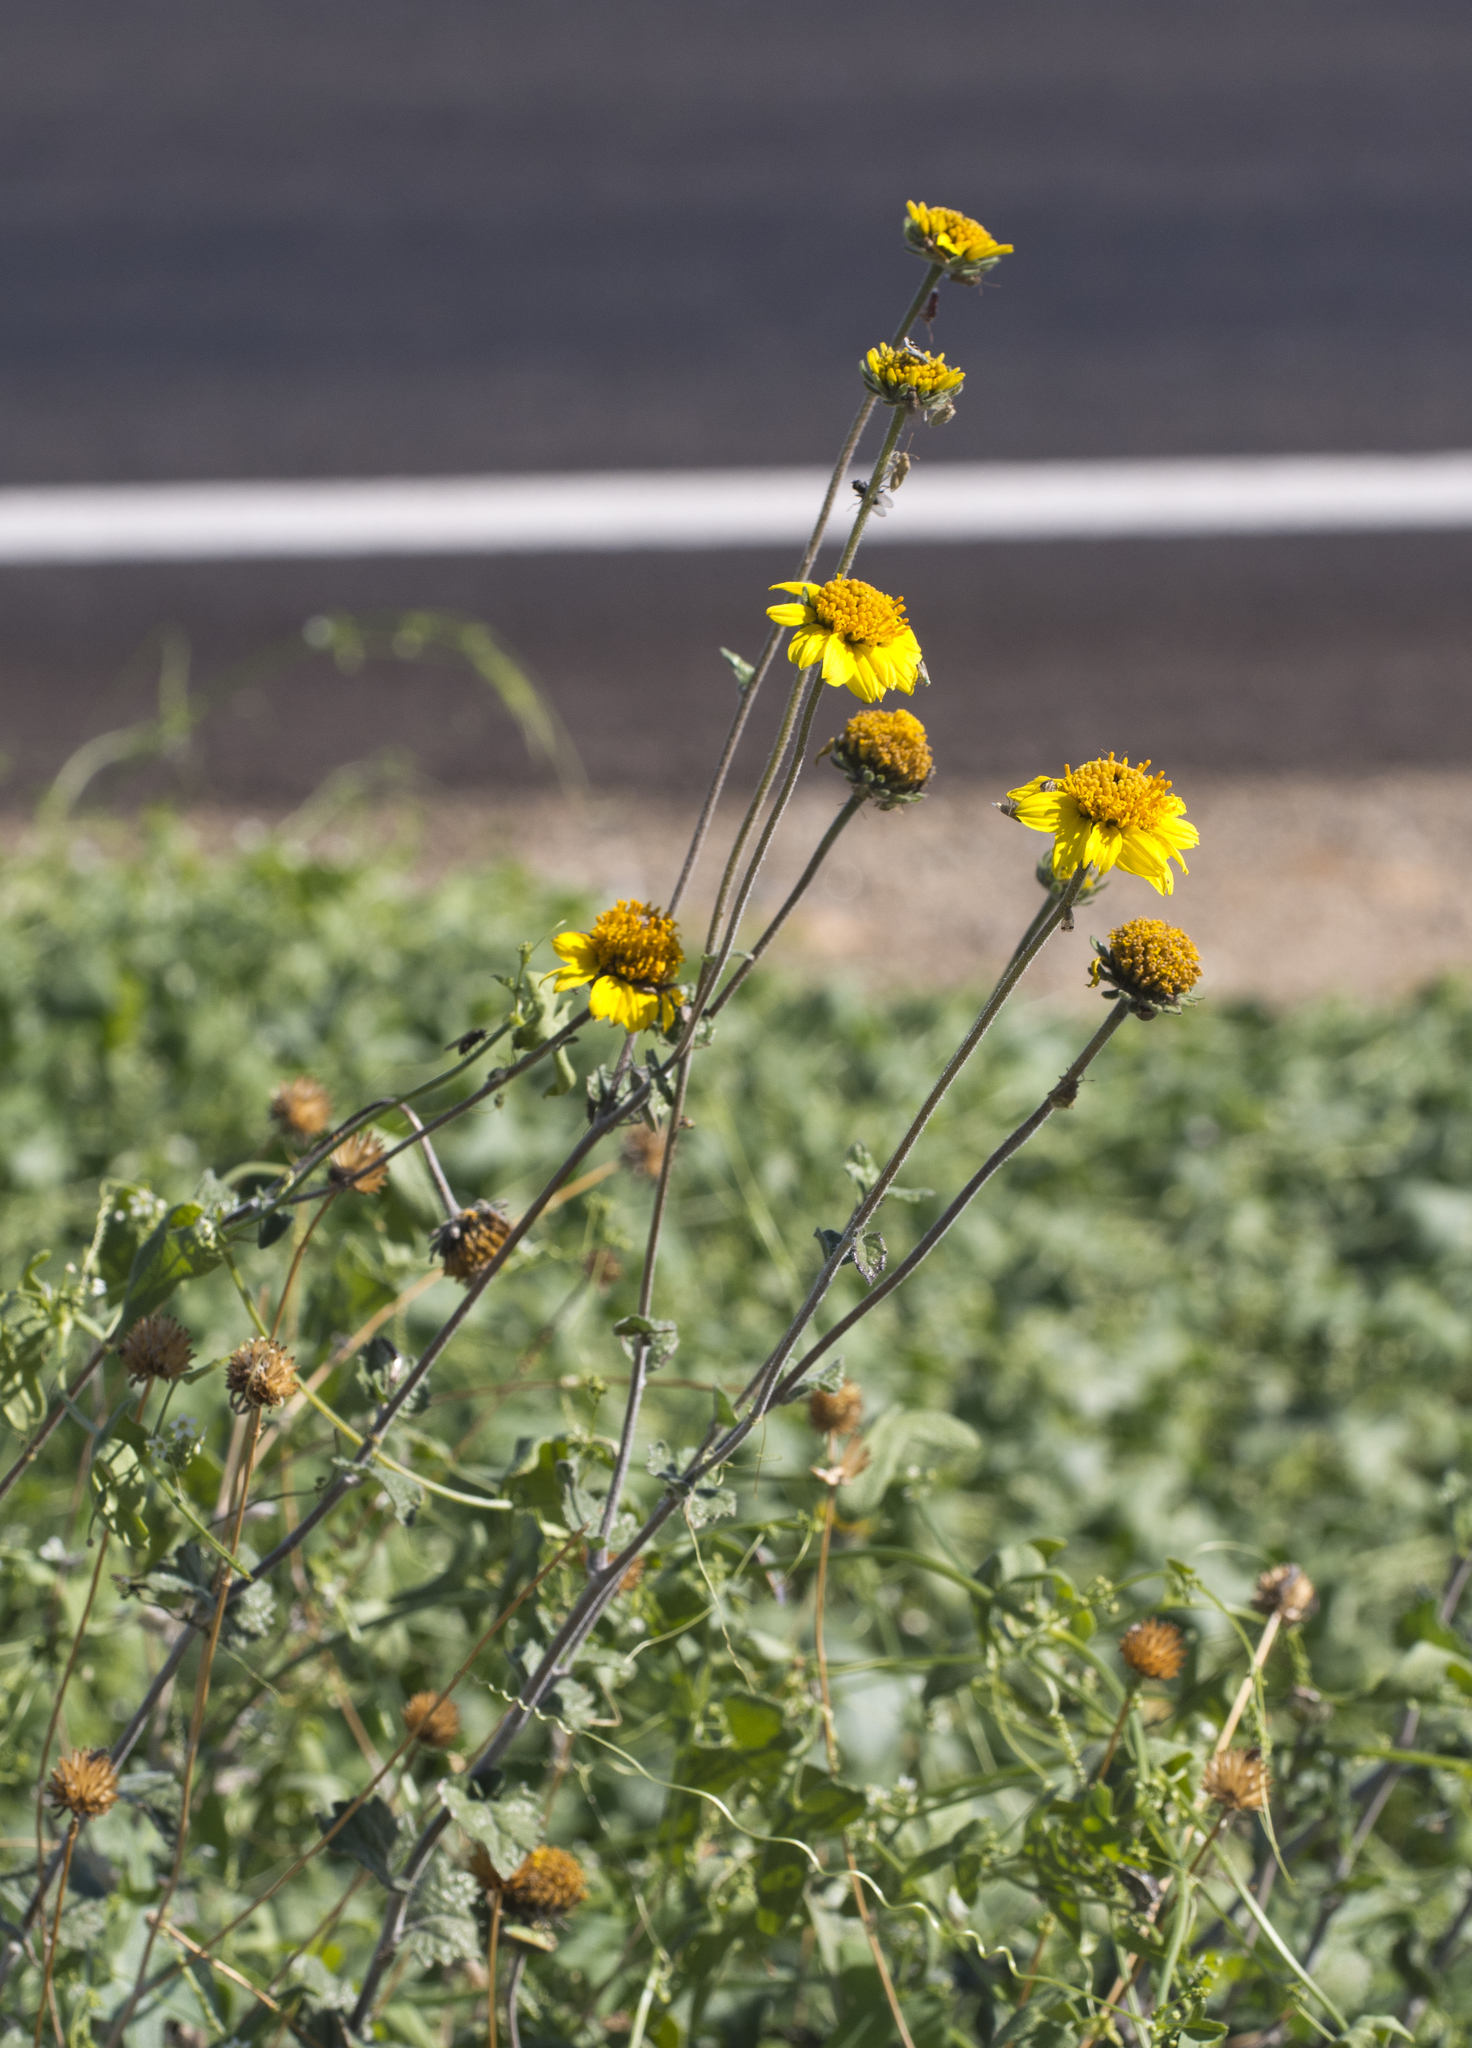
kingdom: Plantae
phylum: Tracheophyta
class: Magnoliopsida
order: Asterales
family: Asteraceae
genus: Bahiopsis
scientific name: Bahiopsis parishii
